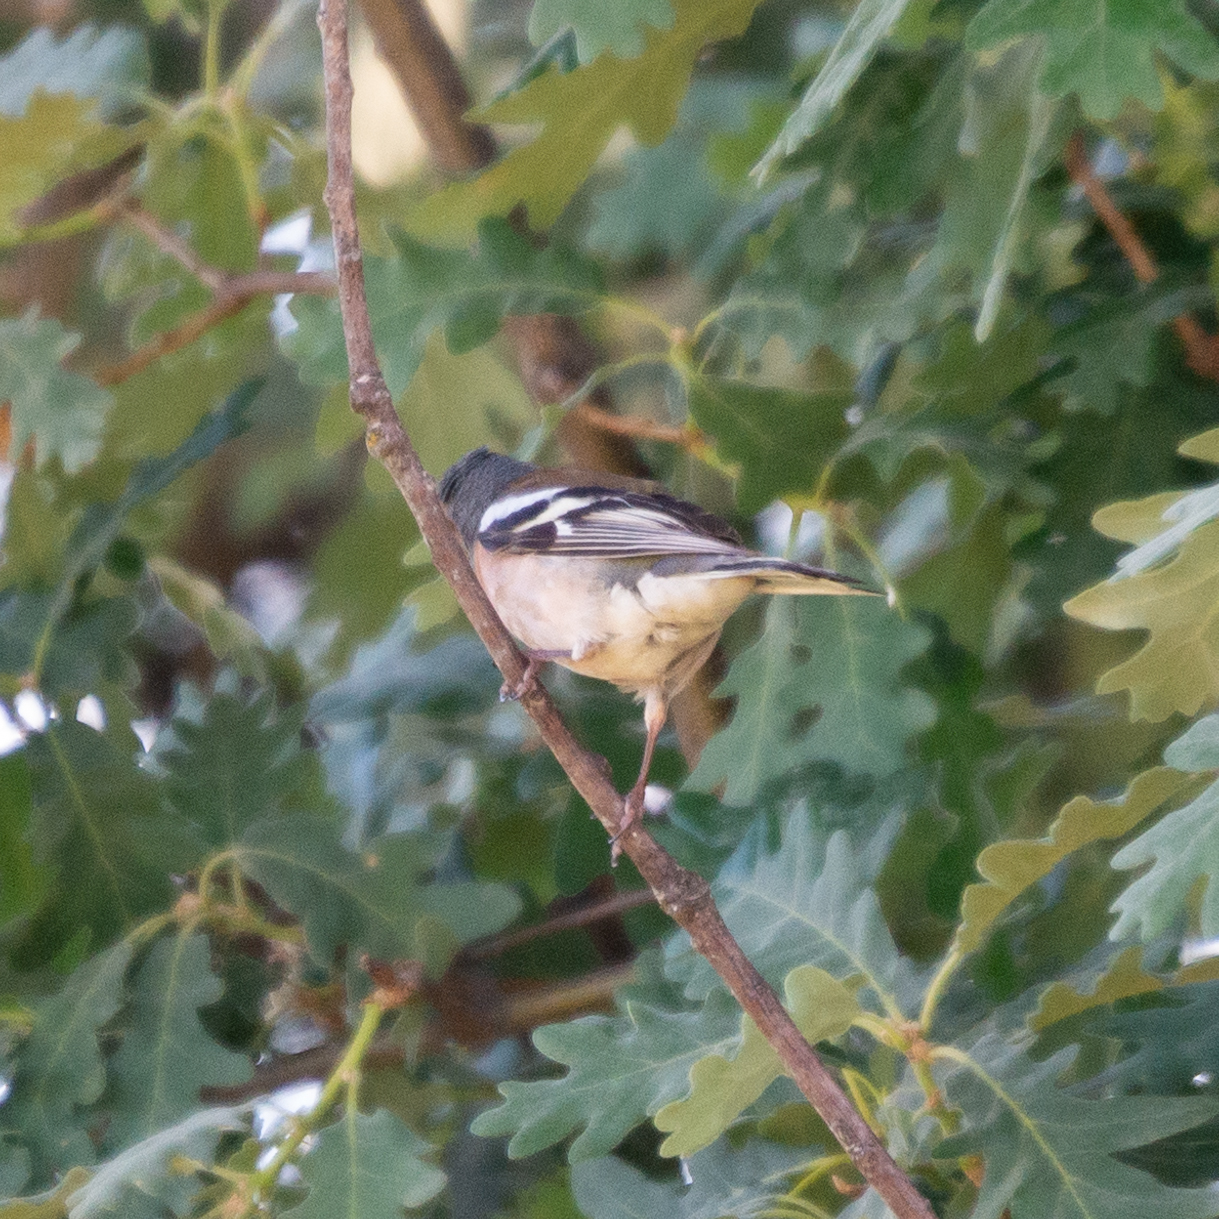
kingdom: Animalia
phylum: Chordata
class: Aves
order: Passeriformes
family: Fringillidae
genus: Fringilla
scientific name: Fringilla coelebs
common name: Common chaffinch
